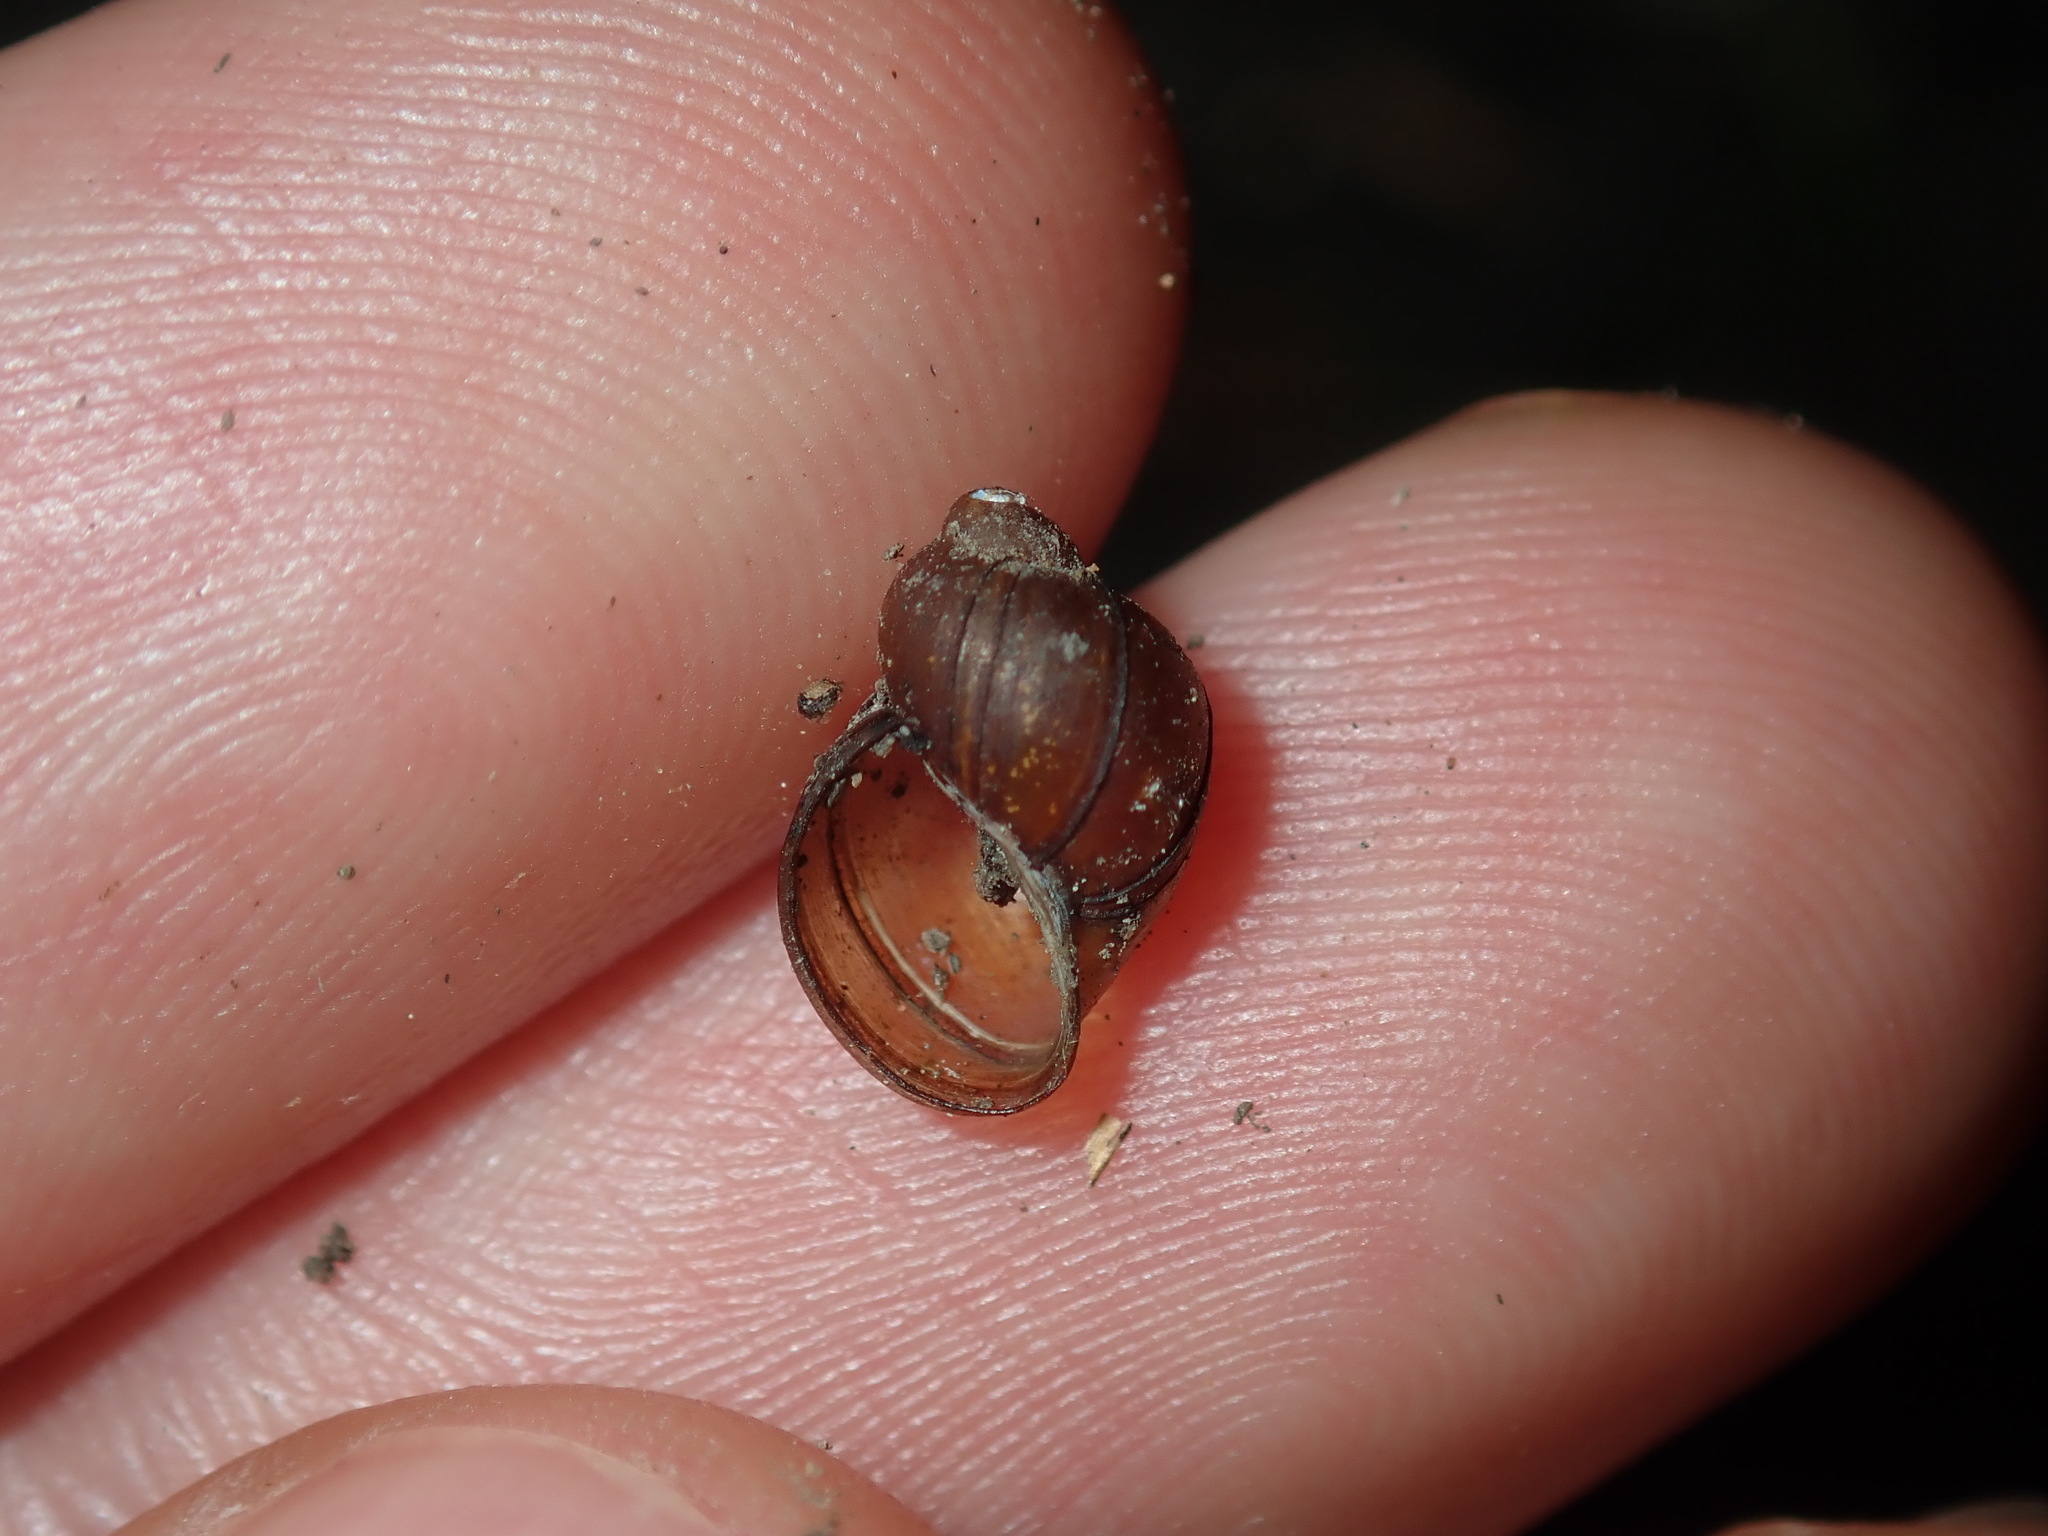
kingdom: Animalia
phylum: Mollusca
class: Gastropoda
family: Planorbidae
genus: Isidorella
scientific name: Isidorella hainesii
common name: Haine’s pouch snail
